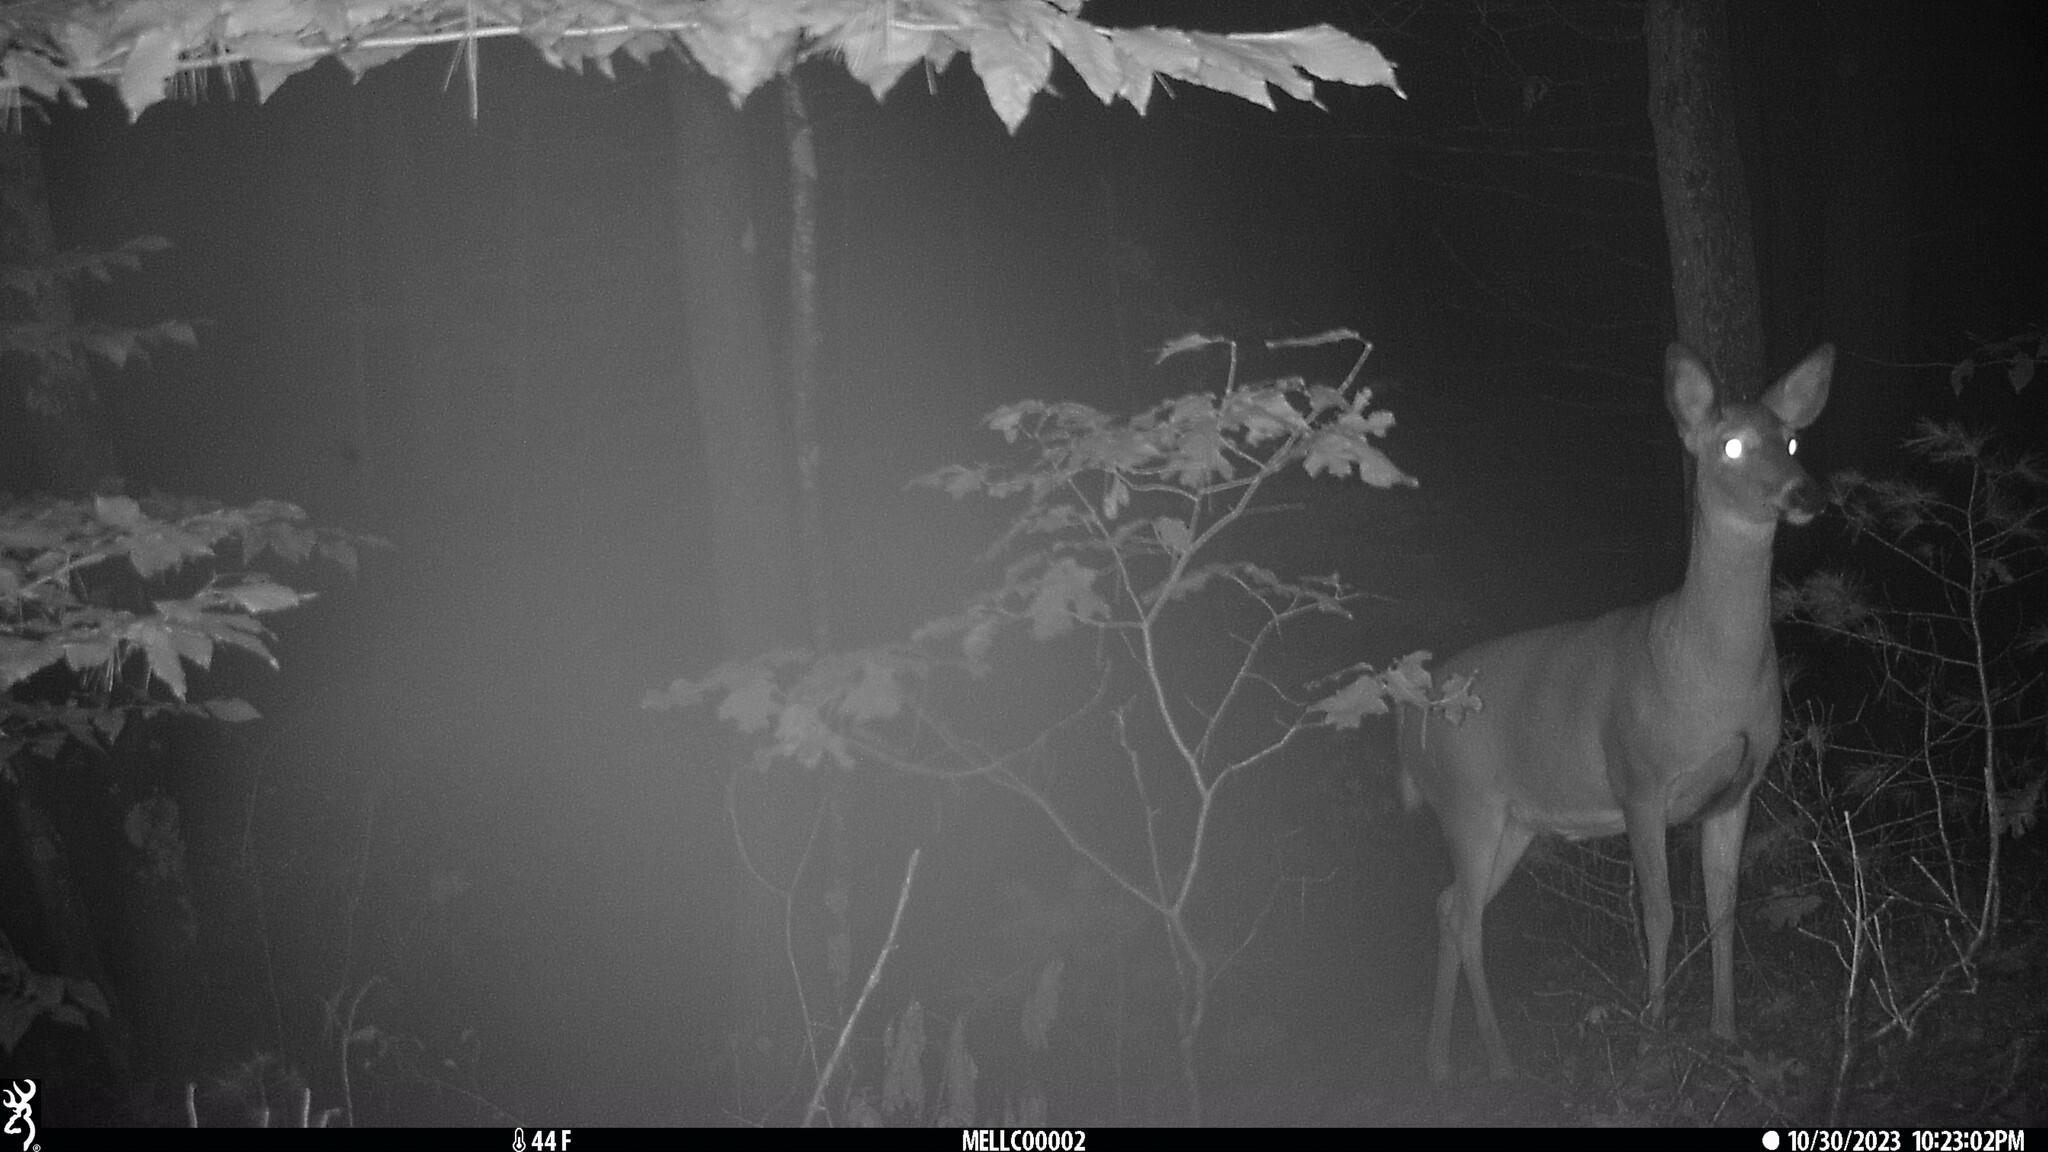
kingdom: Animalia
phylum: Chordata
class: Mammalia
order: Artiodactyla
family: Cervidae
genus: Odocoileus
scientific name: Odocoileus virginianus
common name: White-tailed deer
